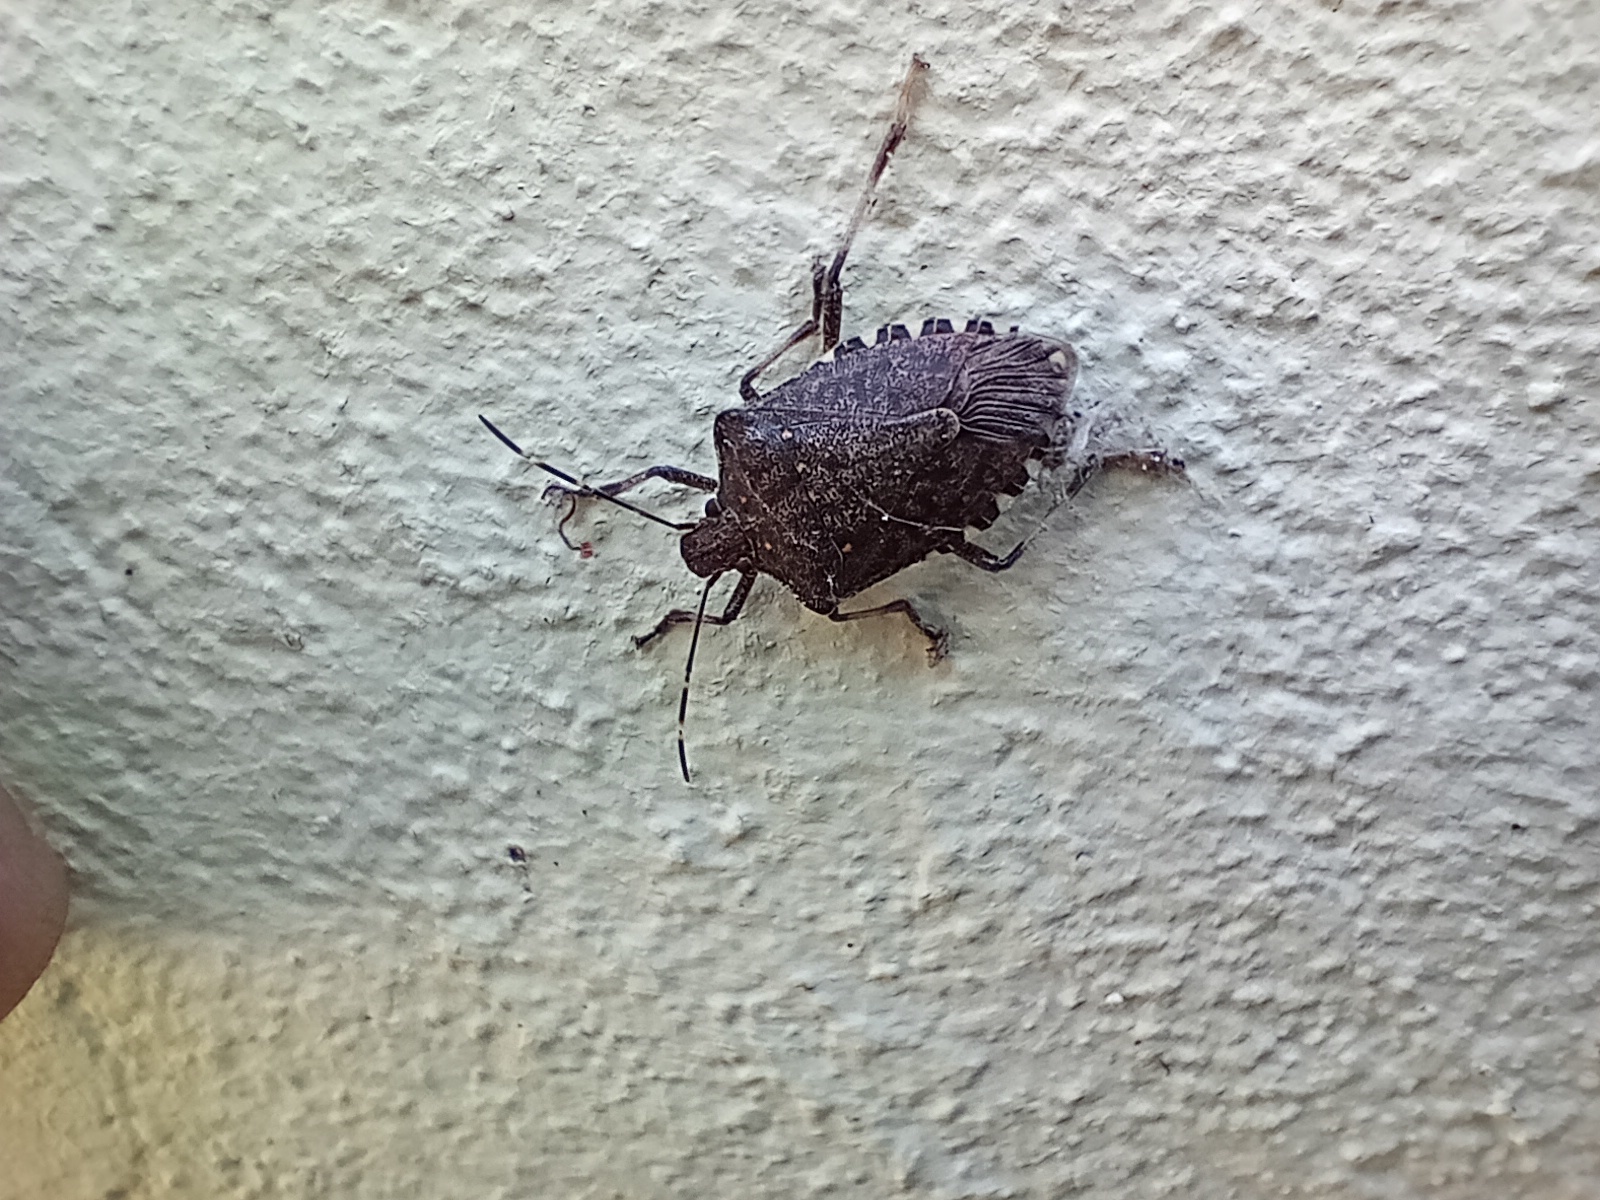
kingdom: Animalia
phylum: Arthropoda
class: Insecta
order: Hemiptera
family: Pentatomidae
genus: Halyomorpha
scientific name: Halyomorpha halys
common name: Brown marmorated stink bug
